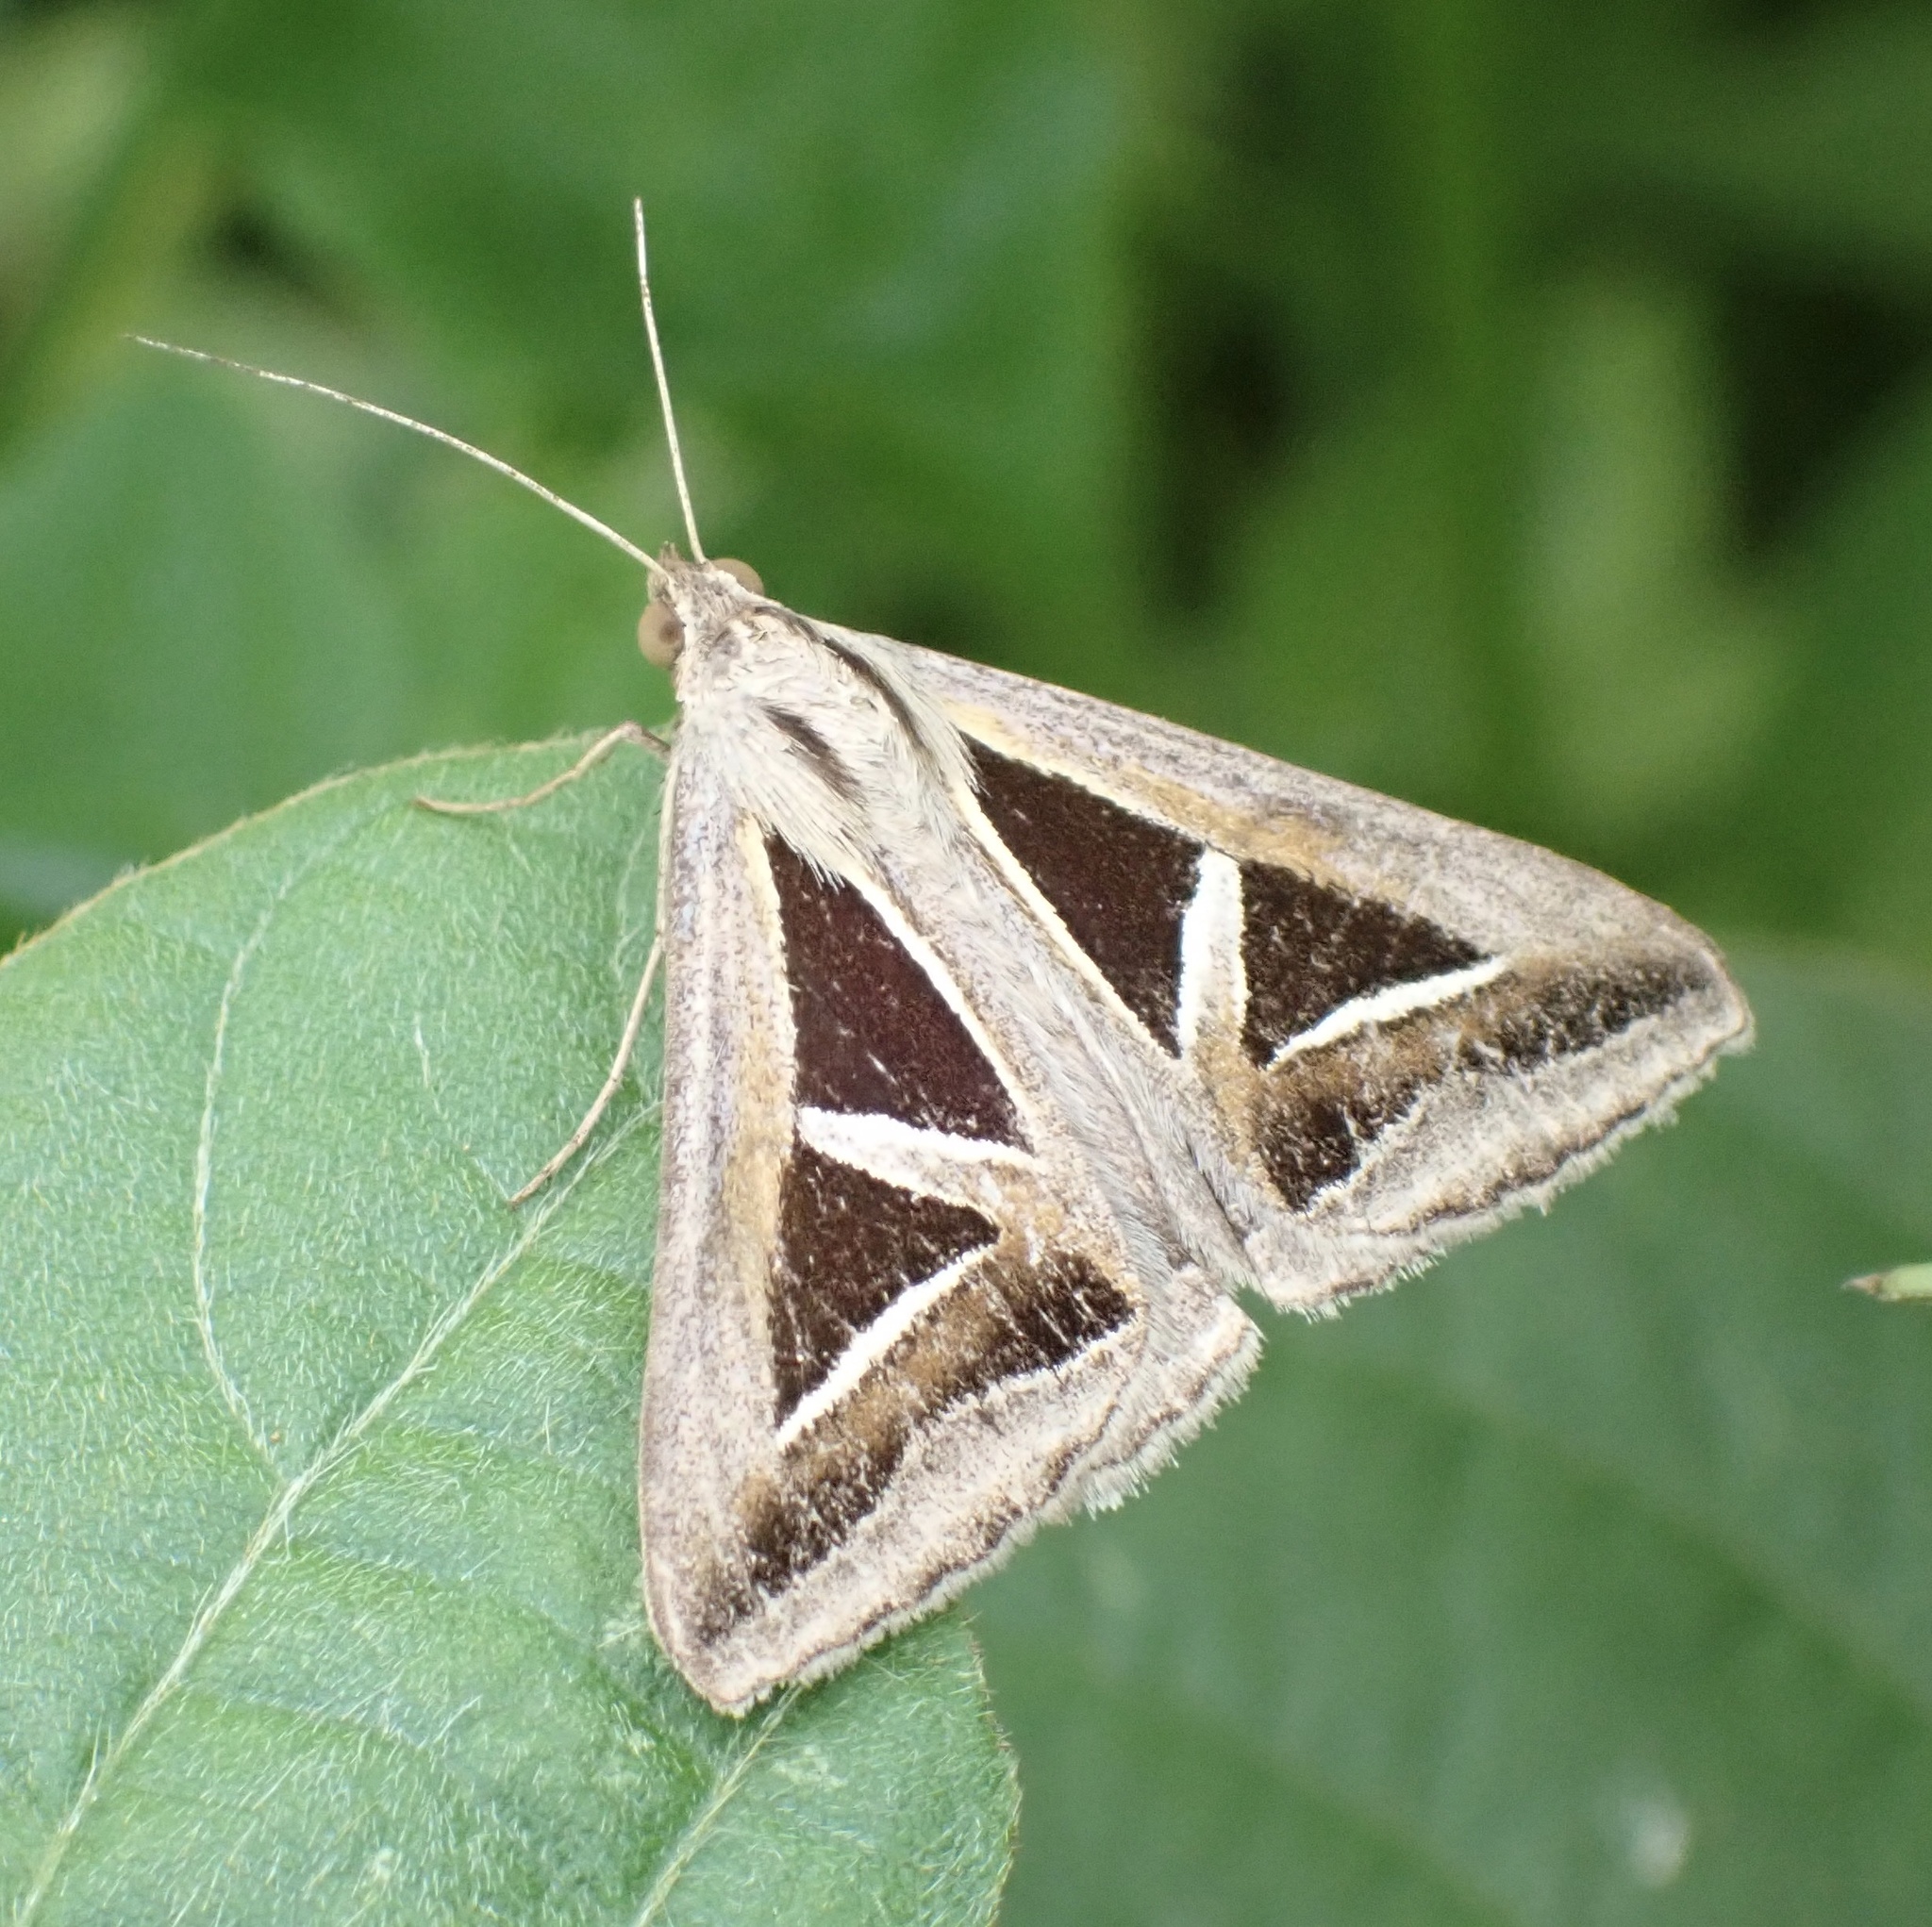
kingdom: Animalia
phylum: Arthropoda
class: Insecta
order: Lepidoptera
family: Erebidae
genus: Trigonodes
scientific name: Trigonodes hyppasia
